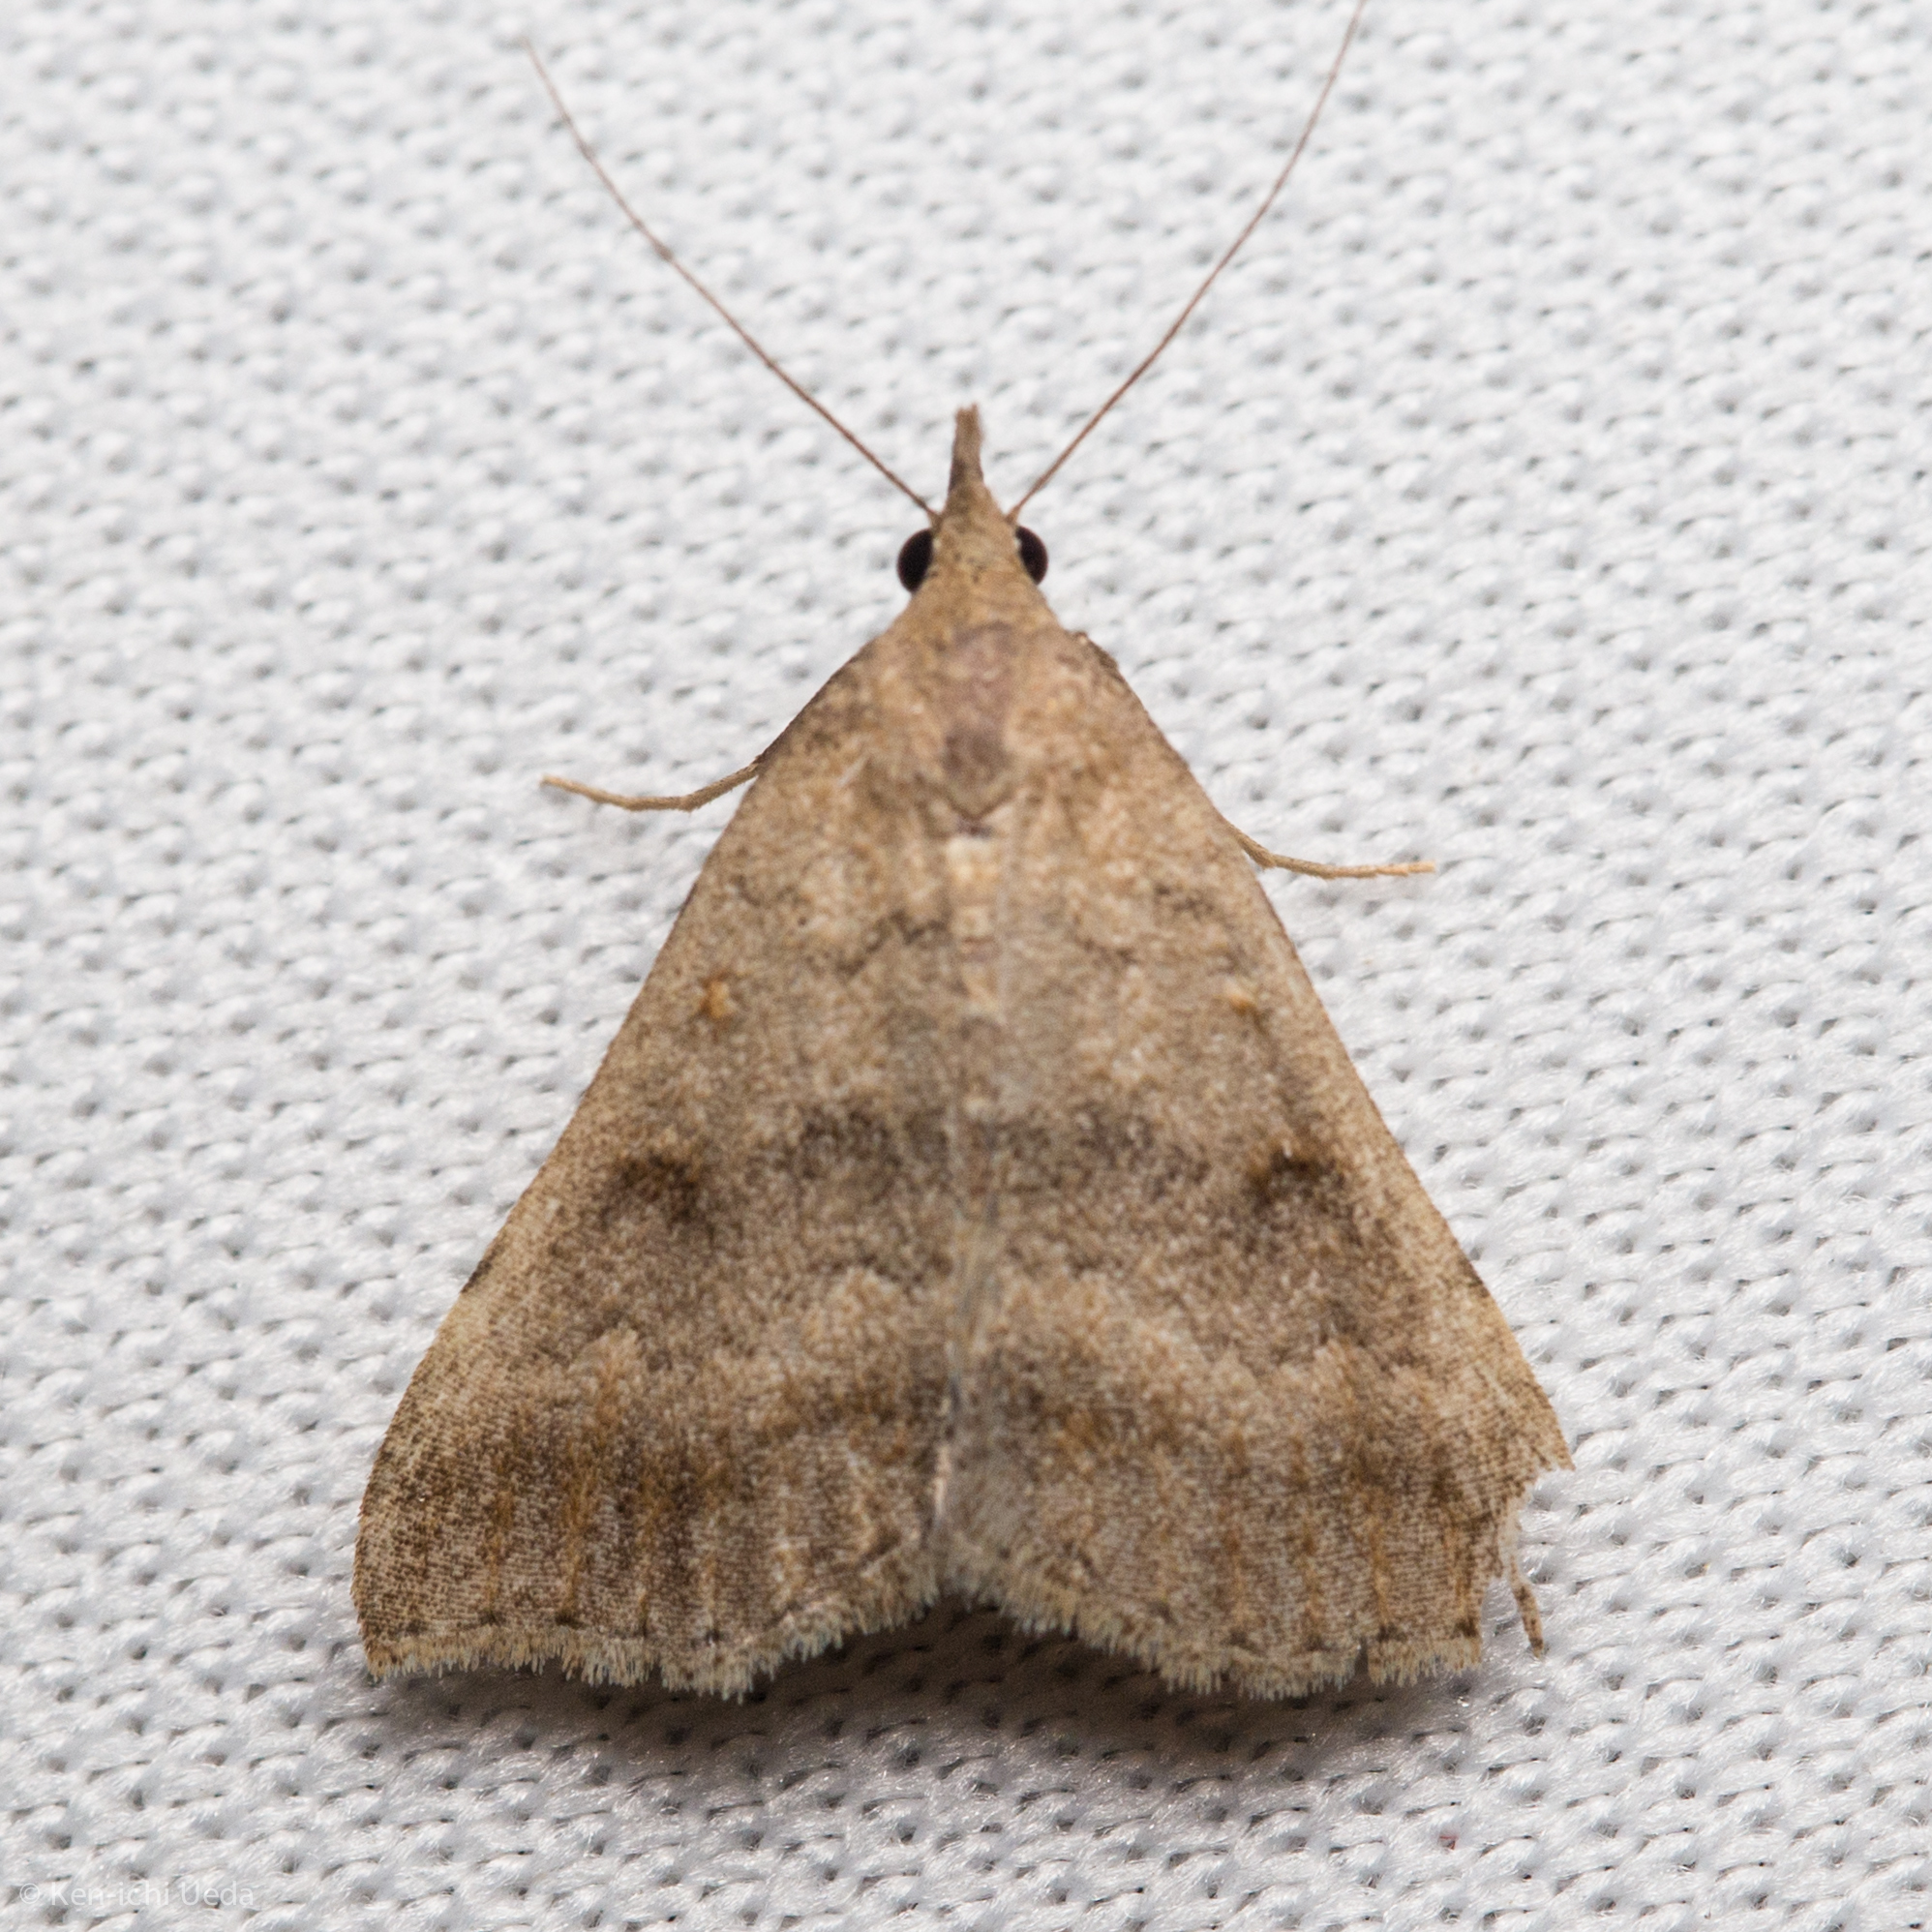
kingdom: Animalia
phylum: Arthropoda
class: Insecta
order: Lepidoptera
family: Erebidae
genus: Tetanolita
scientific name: Tetanolita palligera
